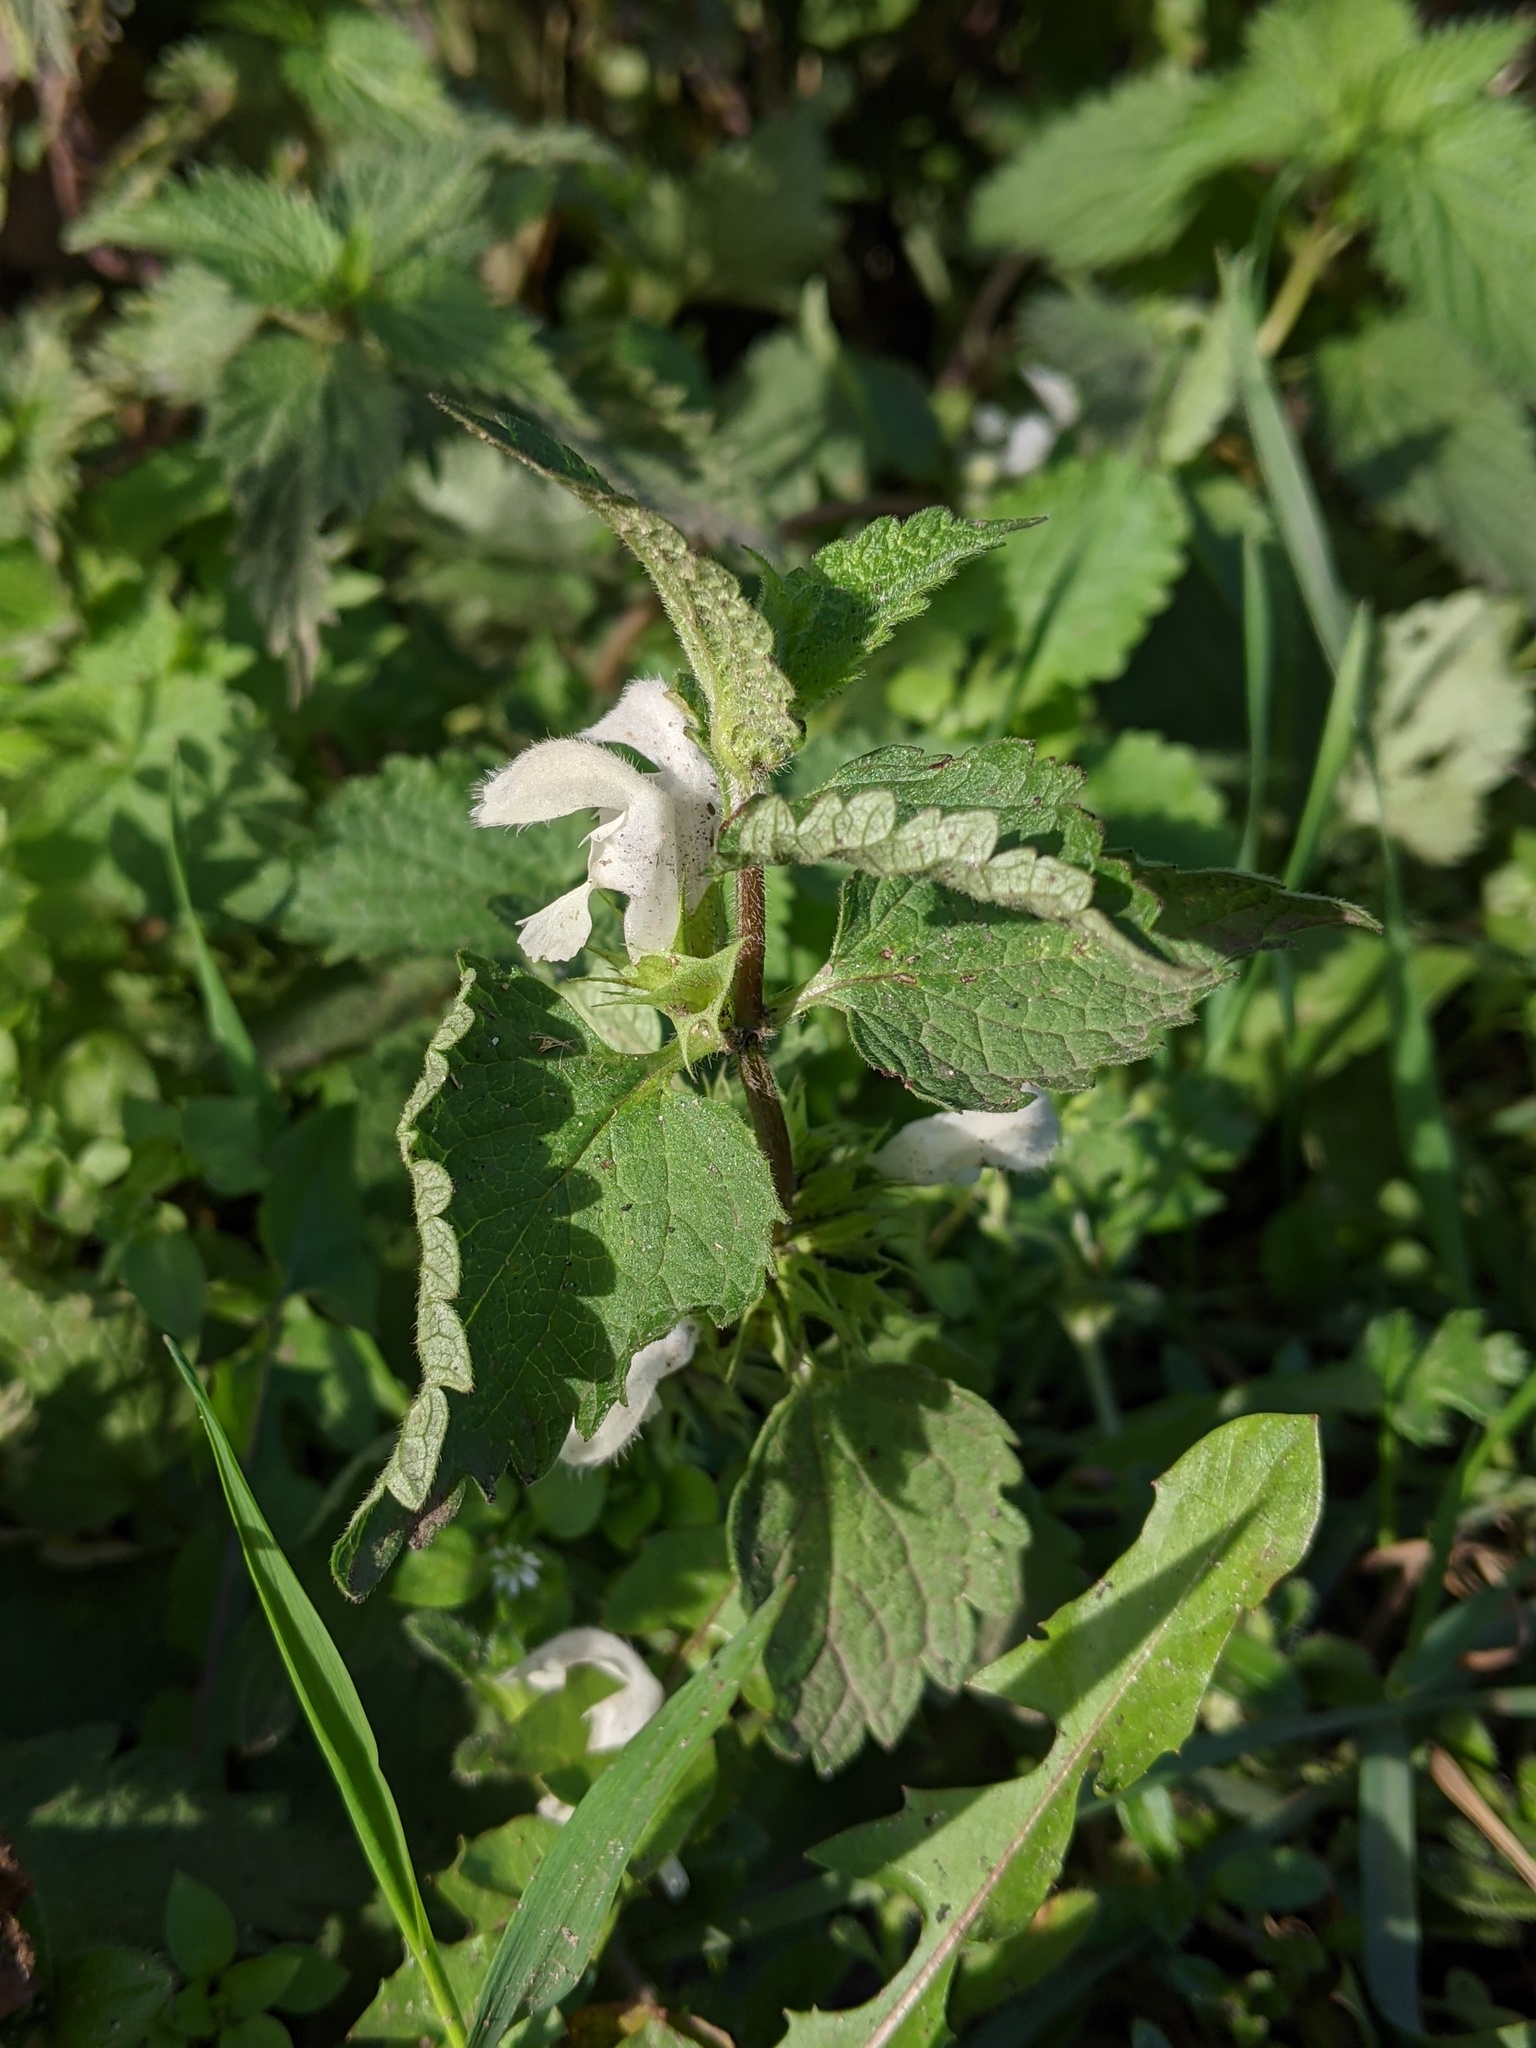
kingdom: Plantae
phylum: Tracheophyta
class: Magnoliopsida
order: Lamiales
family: Lamiaceae
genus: Lamium
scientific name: Lamium album
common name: White dead-nettle
